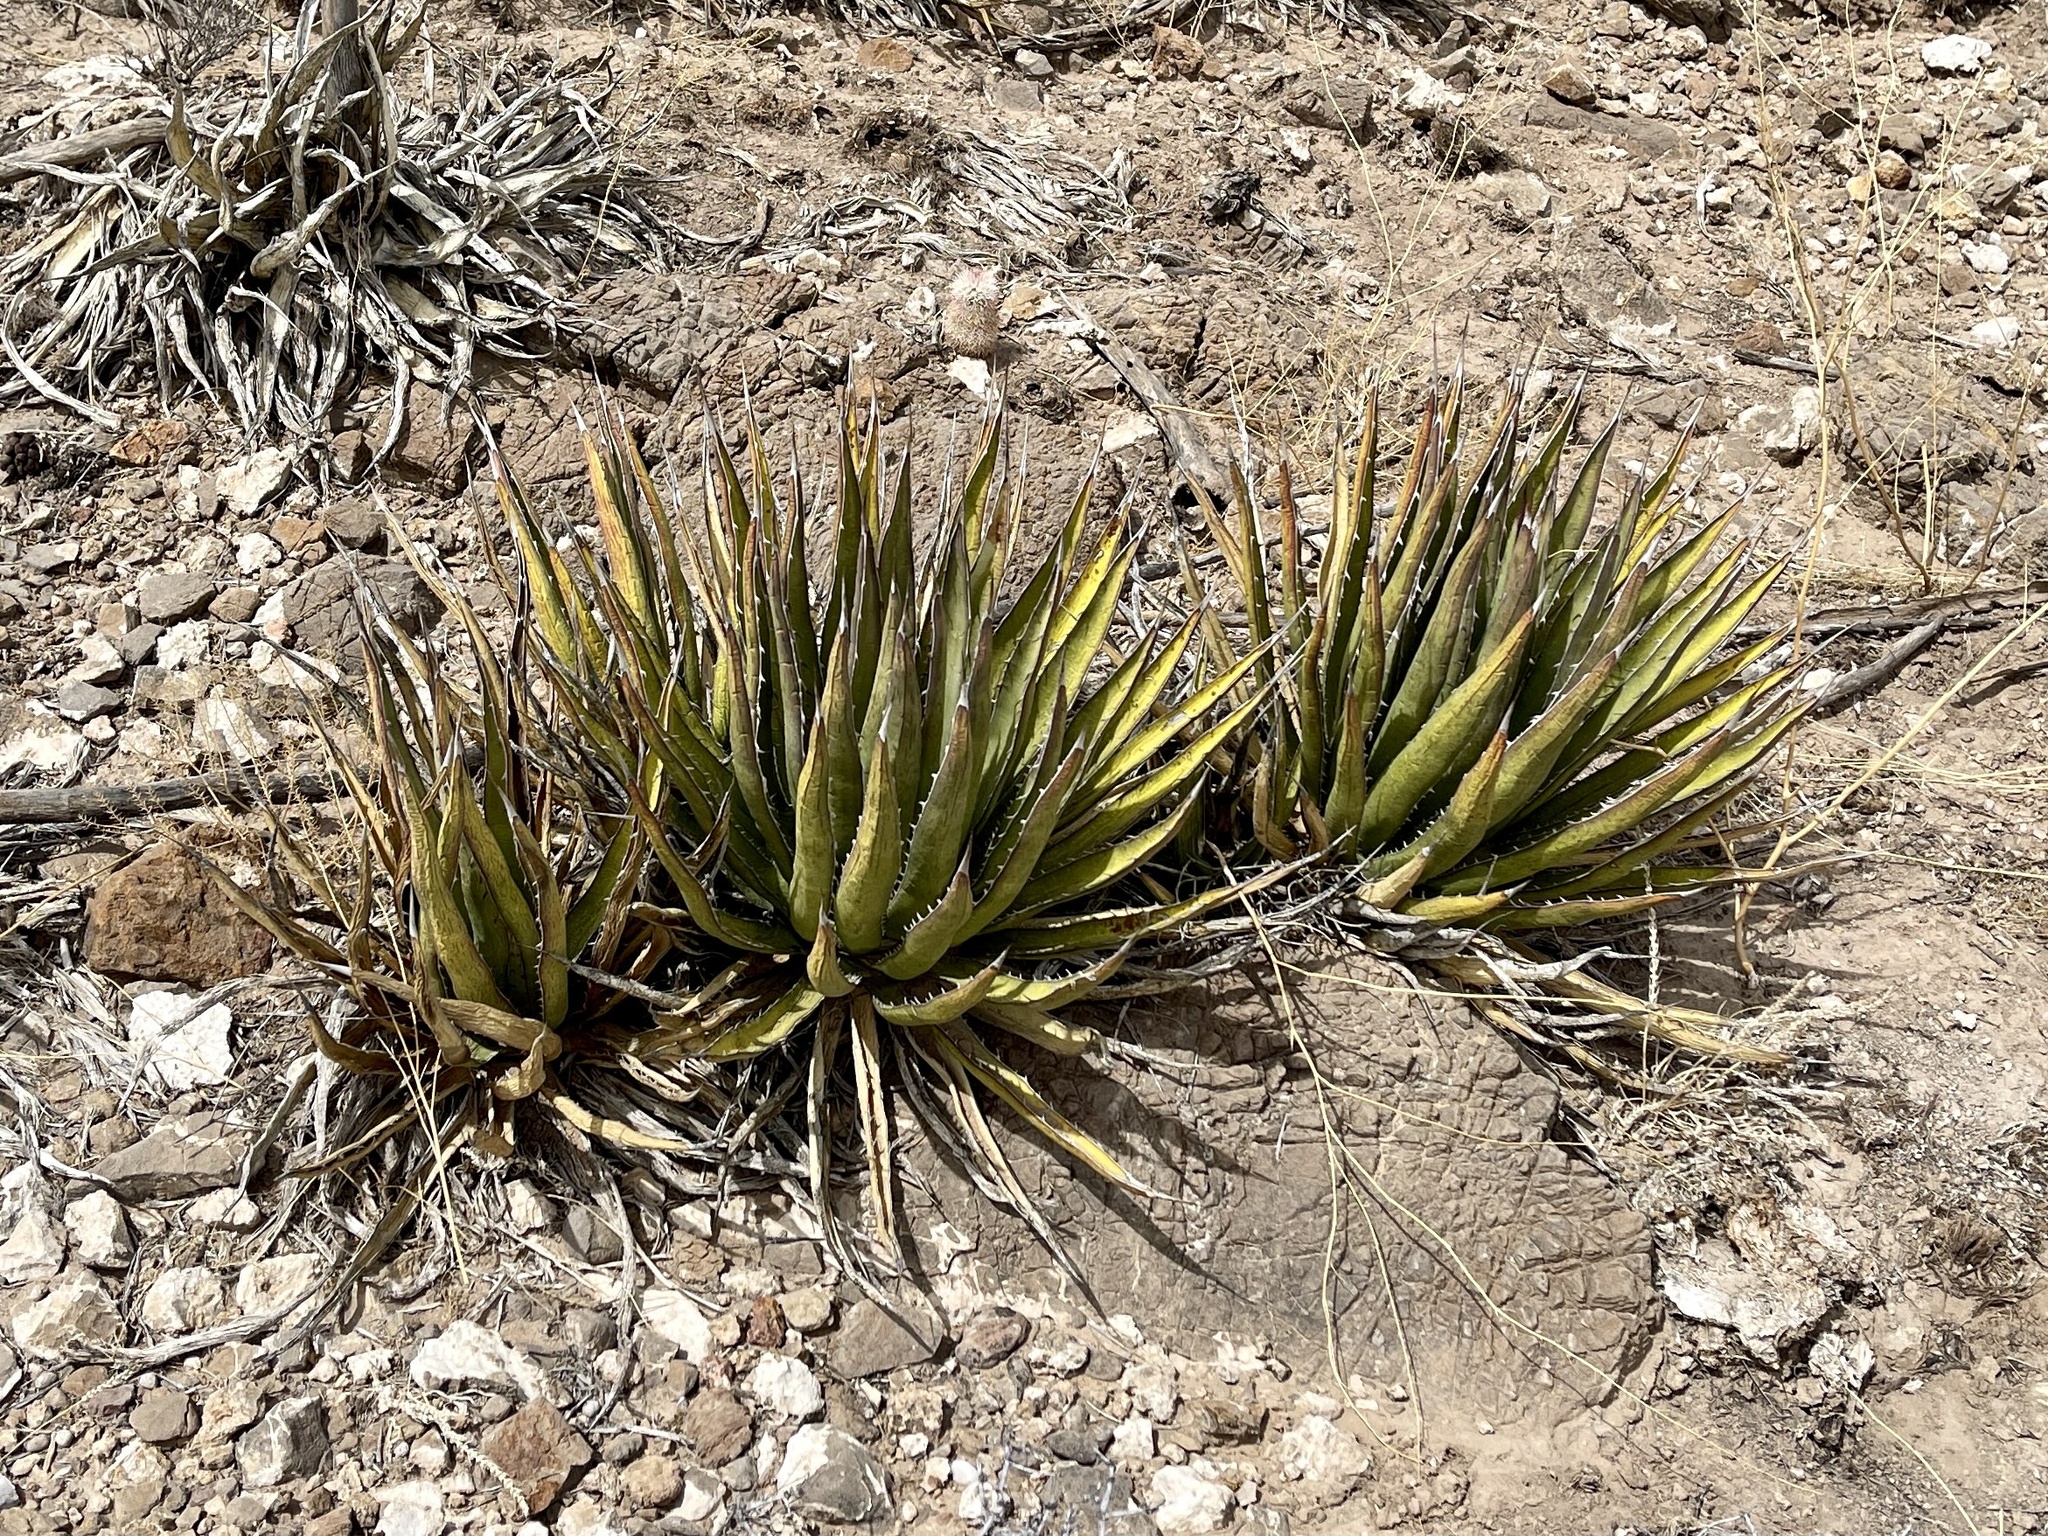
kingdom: Plantae
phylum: Tracheophyta
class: Liliopsida
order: Asparagales
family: Asparagaceae
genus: Agave
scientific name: Agave lechuguilla
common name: Lecheguilla agave
